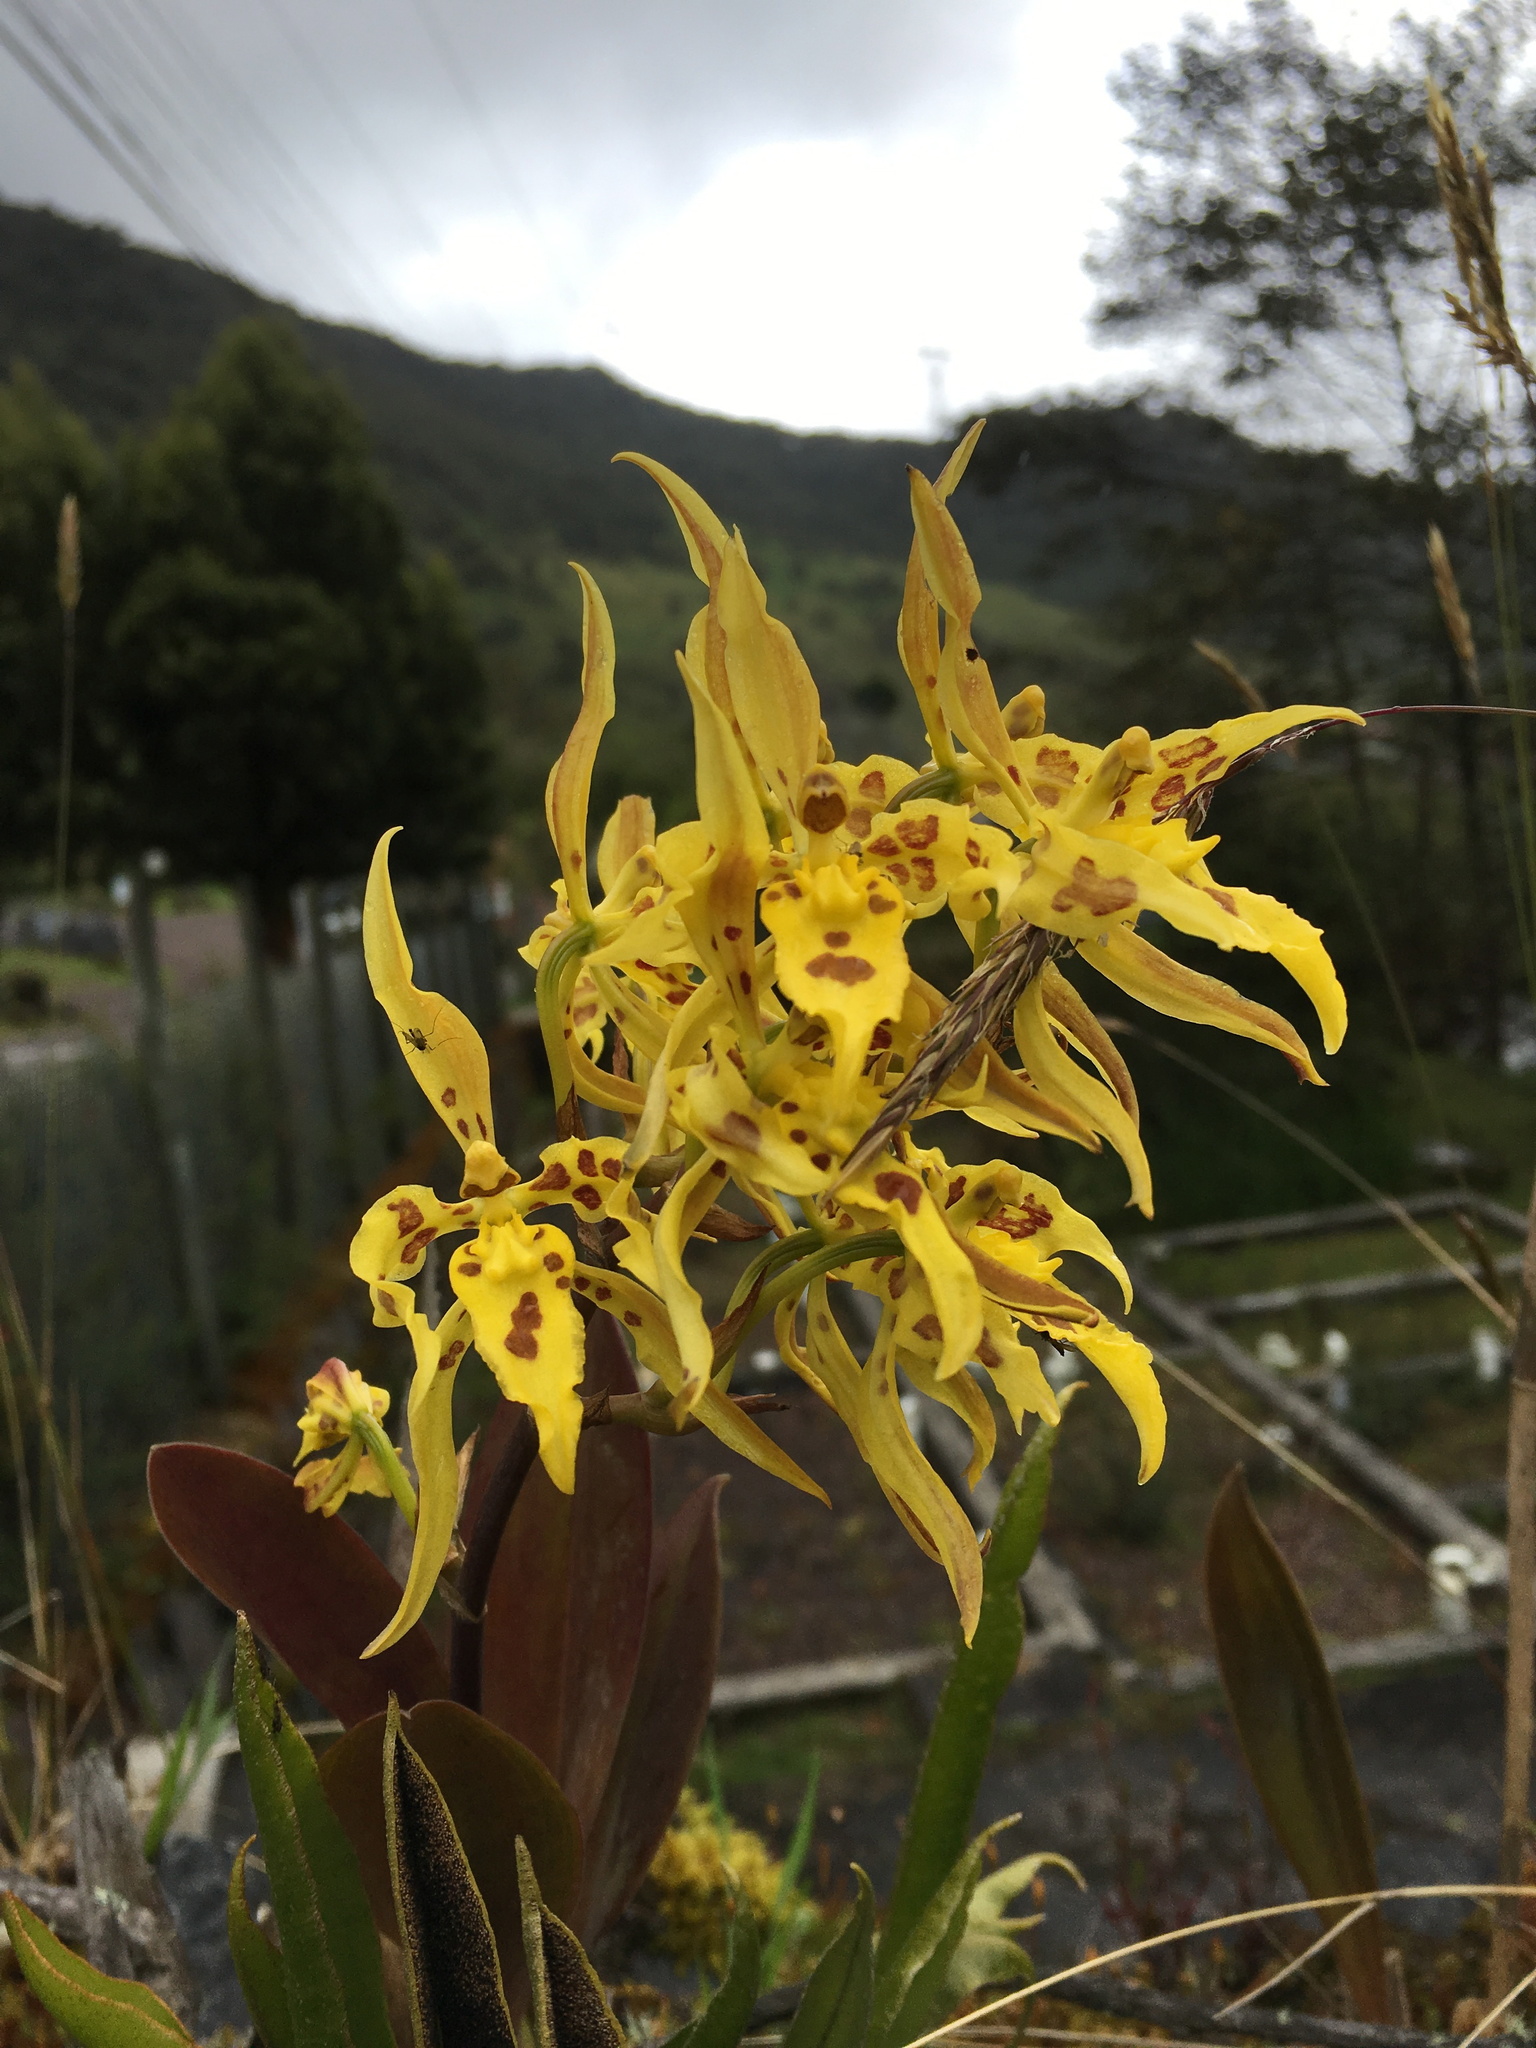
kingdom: Plantae
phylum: Tracheophyta
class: Liliopsida
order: Asparagales
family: Orchidaceae
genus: Cyrtochilum
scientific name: Cyrtochilum pardinum
